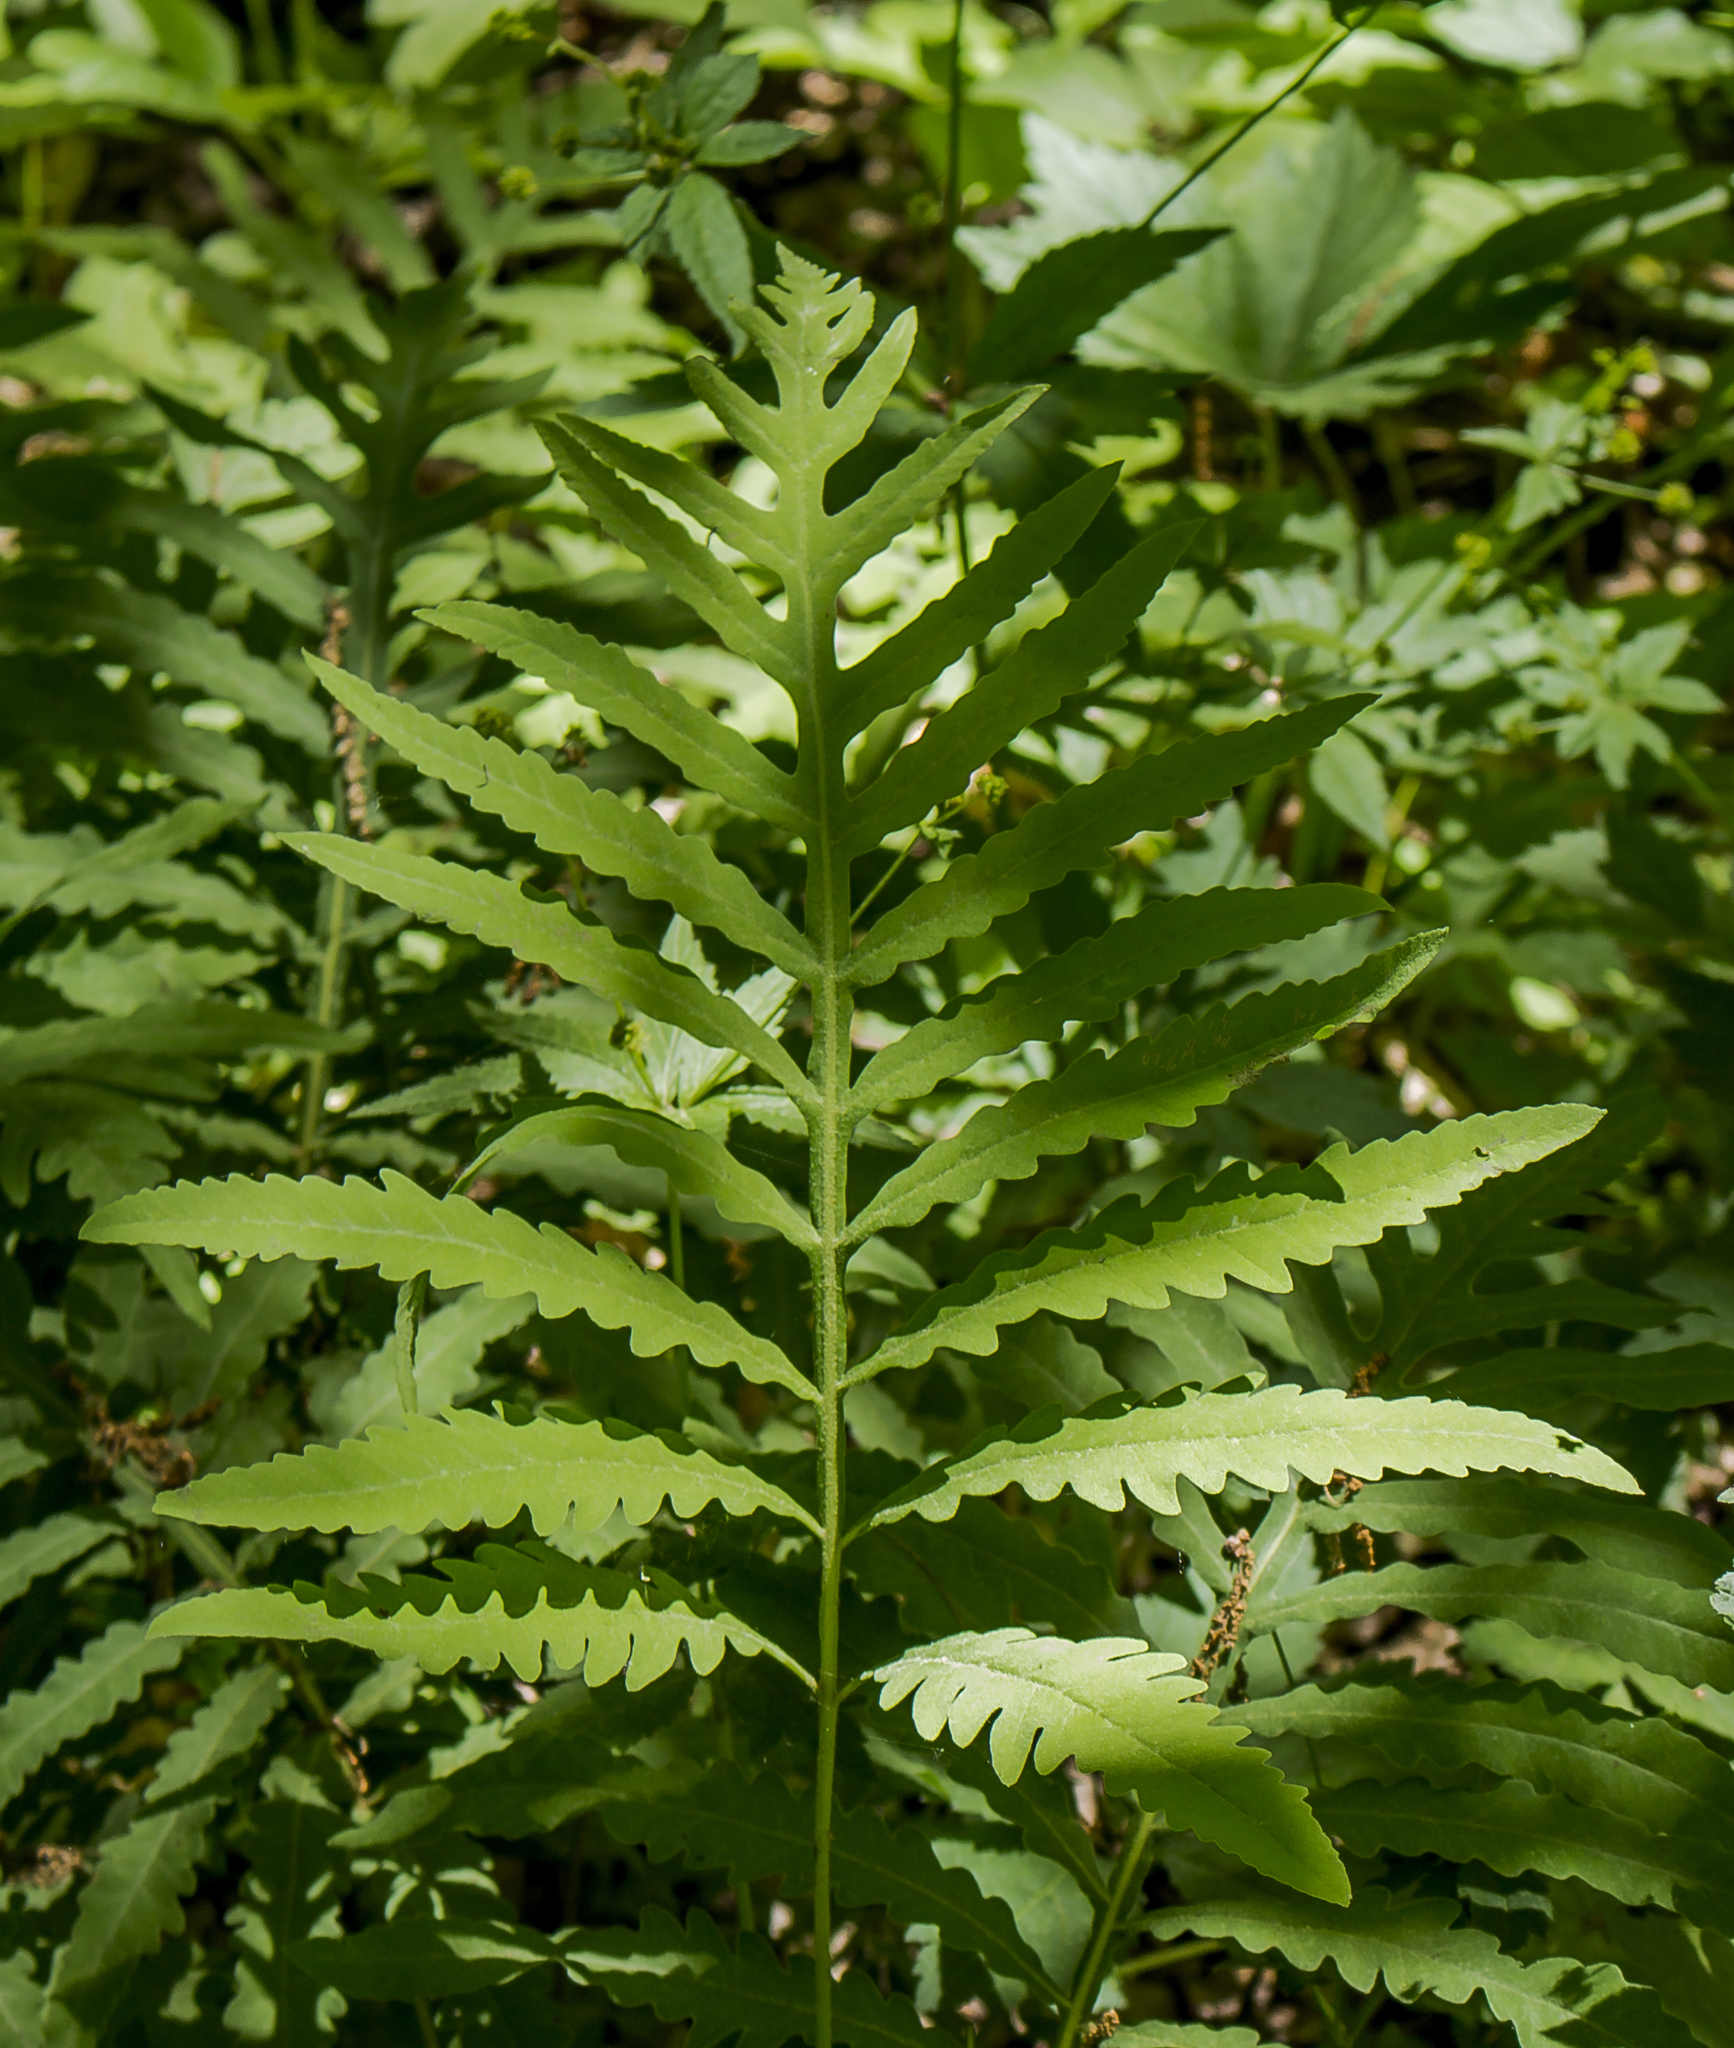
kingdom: Plantae
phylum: Tracheophyta
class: Polypodiopsida
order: Polypodiales
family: Onocleaceae
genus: Onoclea
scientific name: Onoclea sensibilis
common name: Sensitive fern
